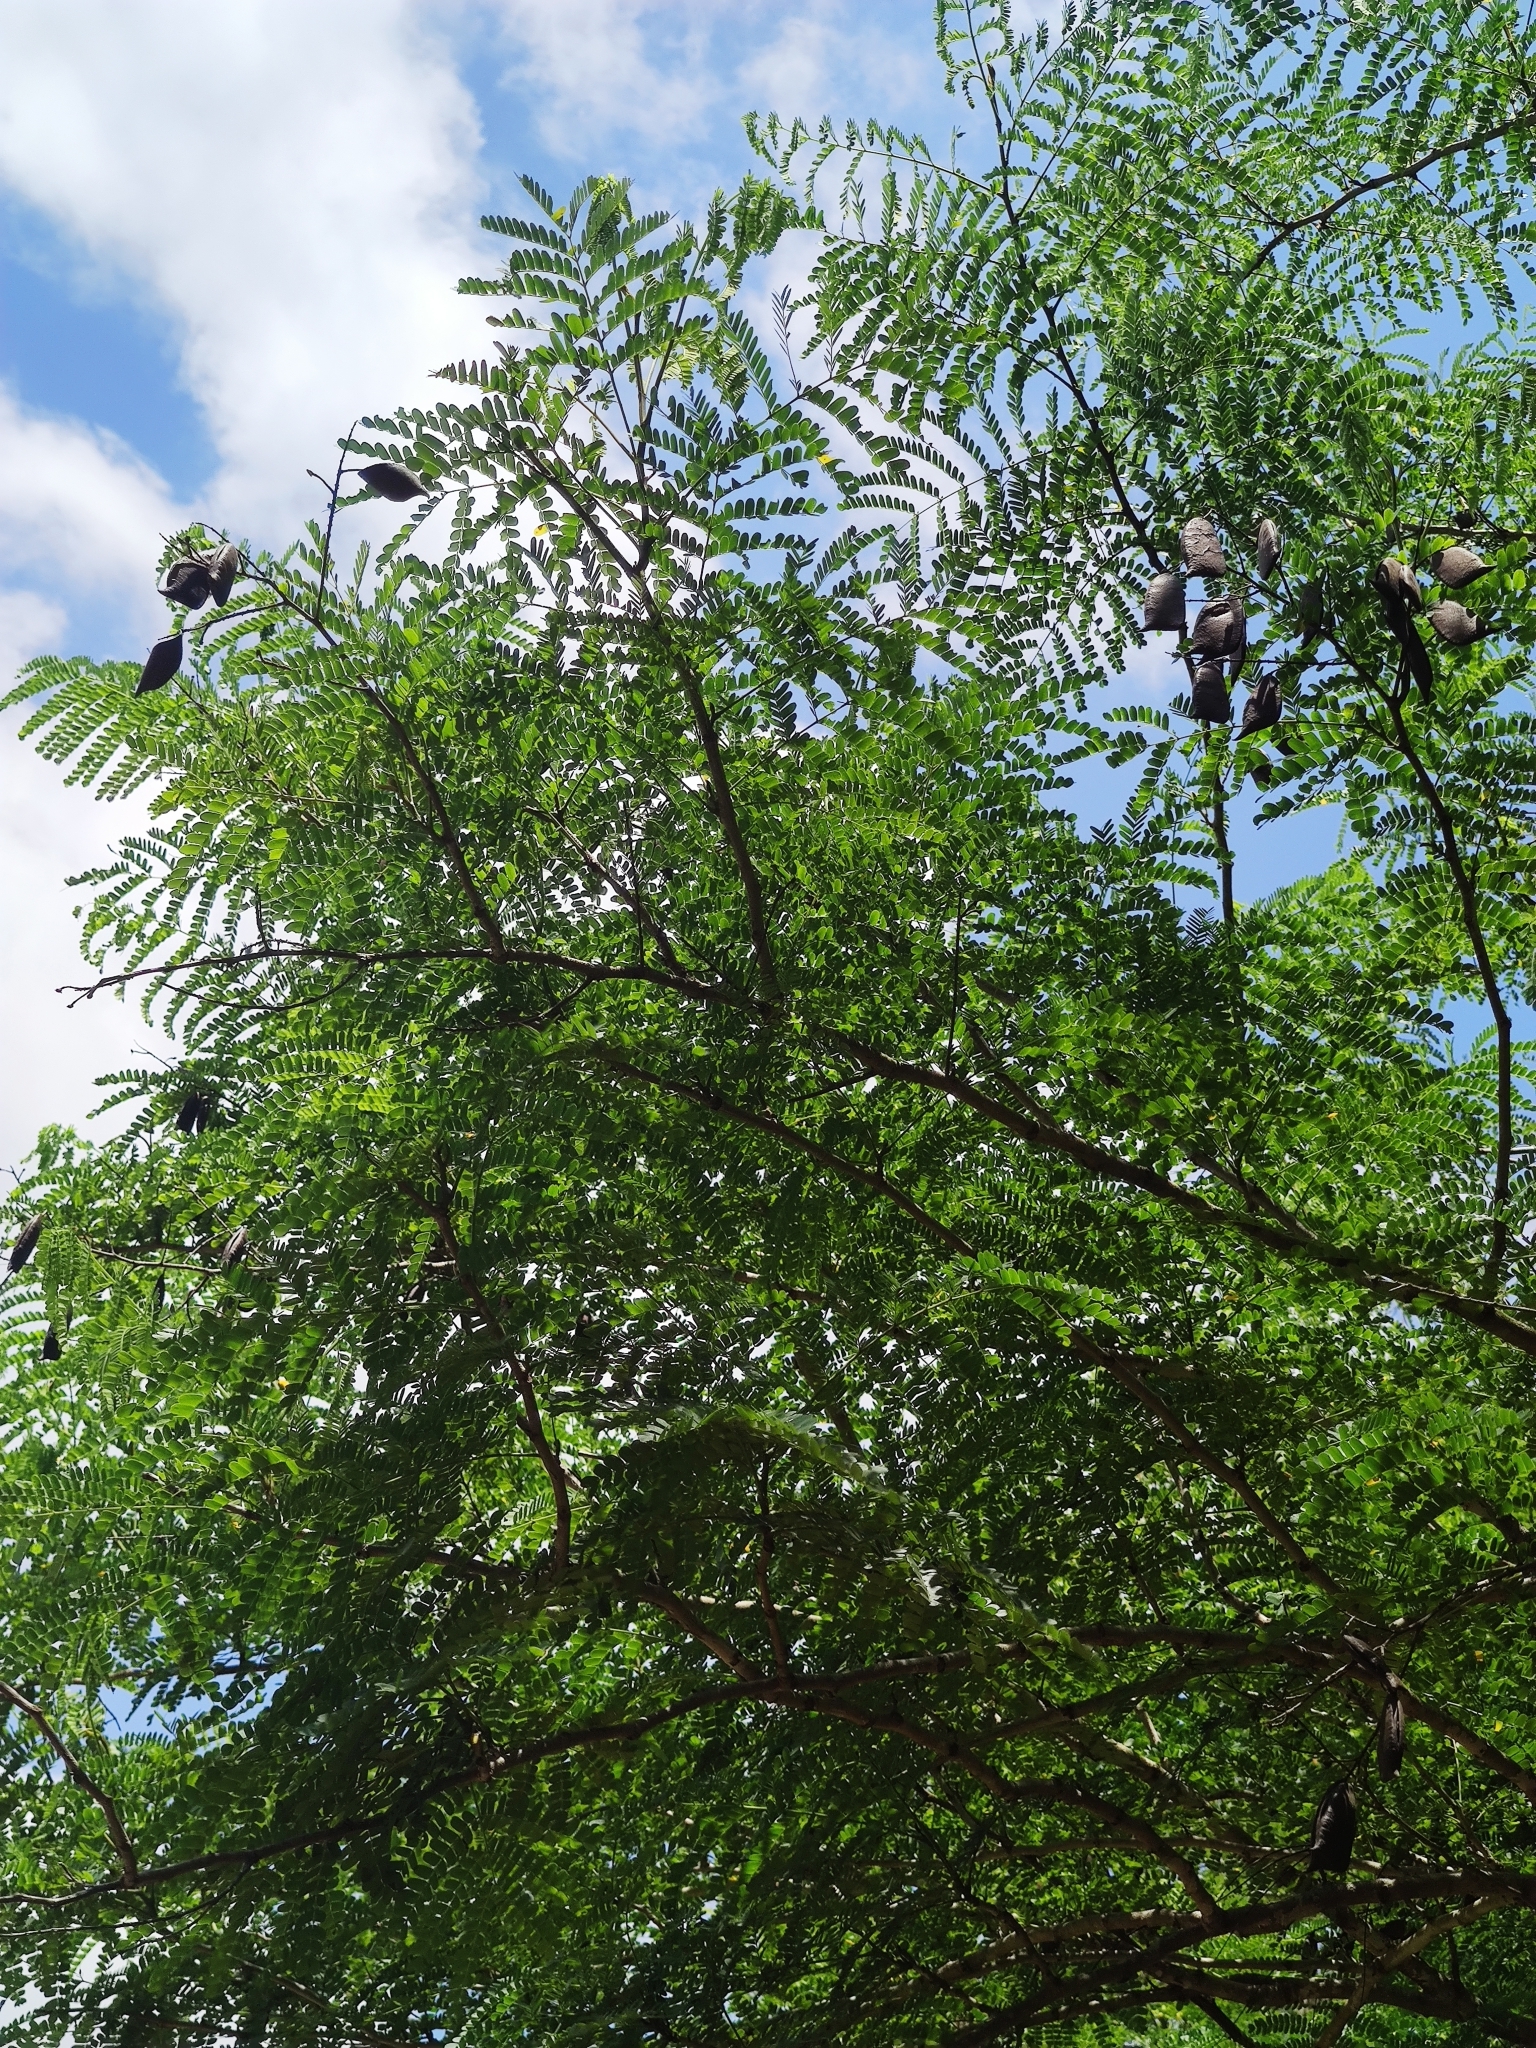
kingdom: Plantae
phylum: Tracheophyta
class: Magnoliopsida
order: Fabales
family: Fabaceae
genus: Biancaea
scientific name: Biancaea sappan
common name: Sappan
